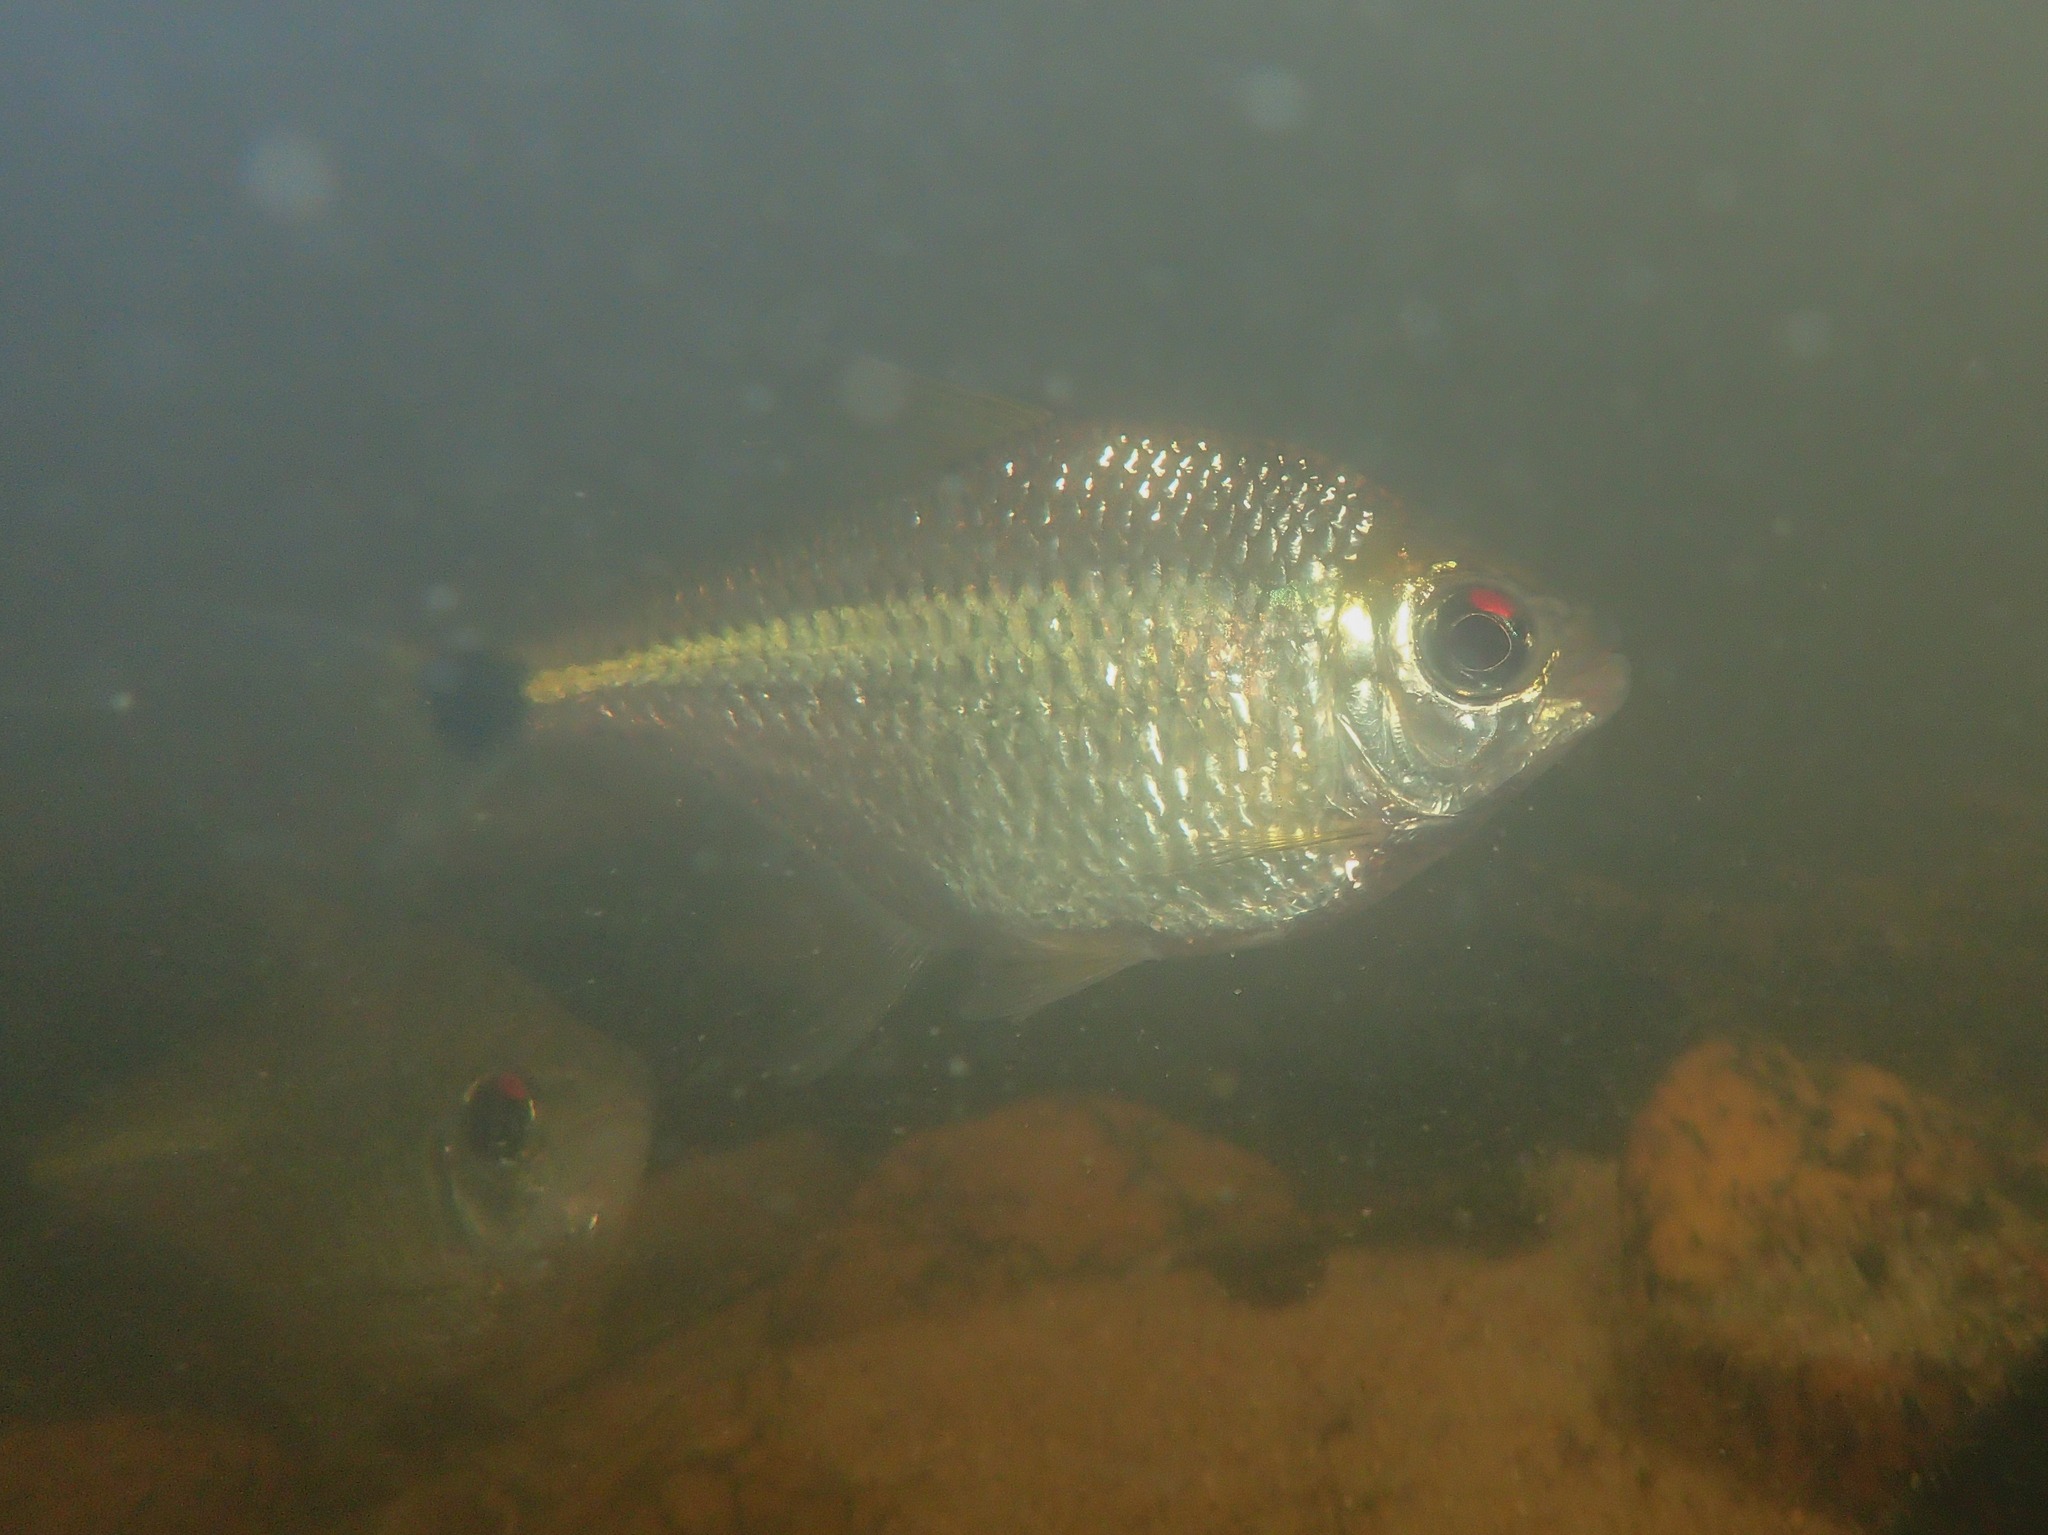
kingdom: Animalia
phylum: Chordata
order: Characiformes
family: Characidae
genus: Jupiaba
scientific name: Jupiaba meunieri
